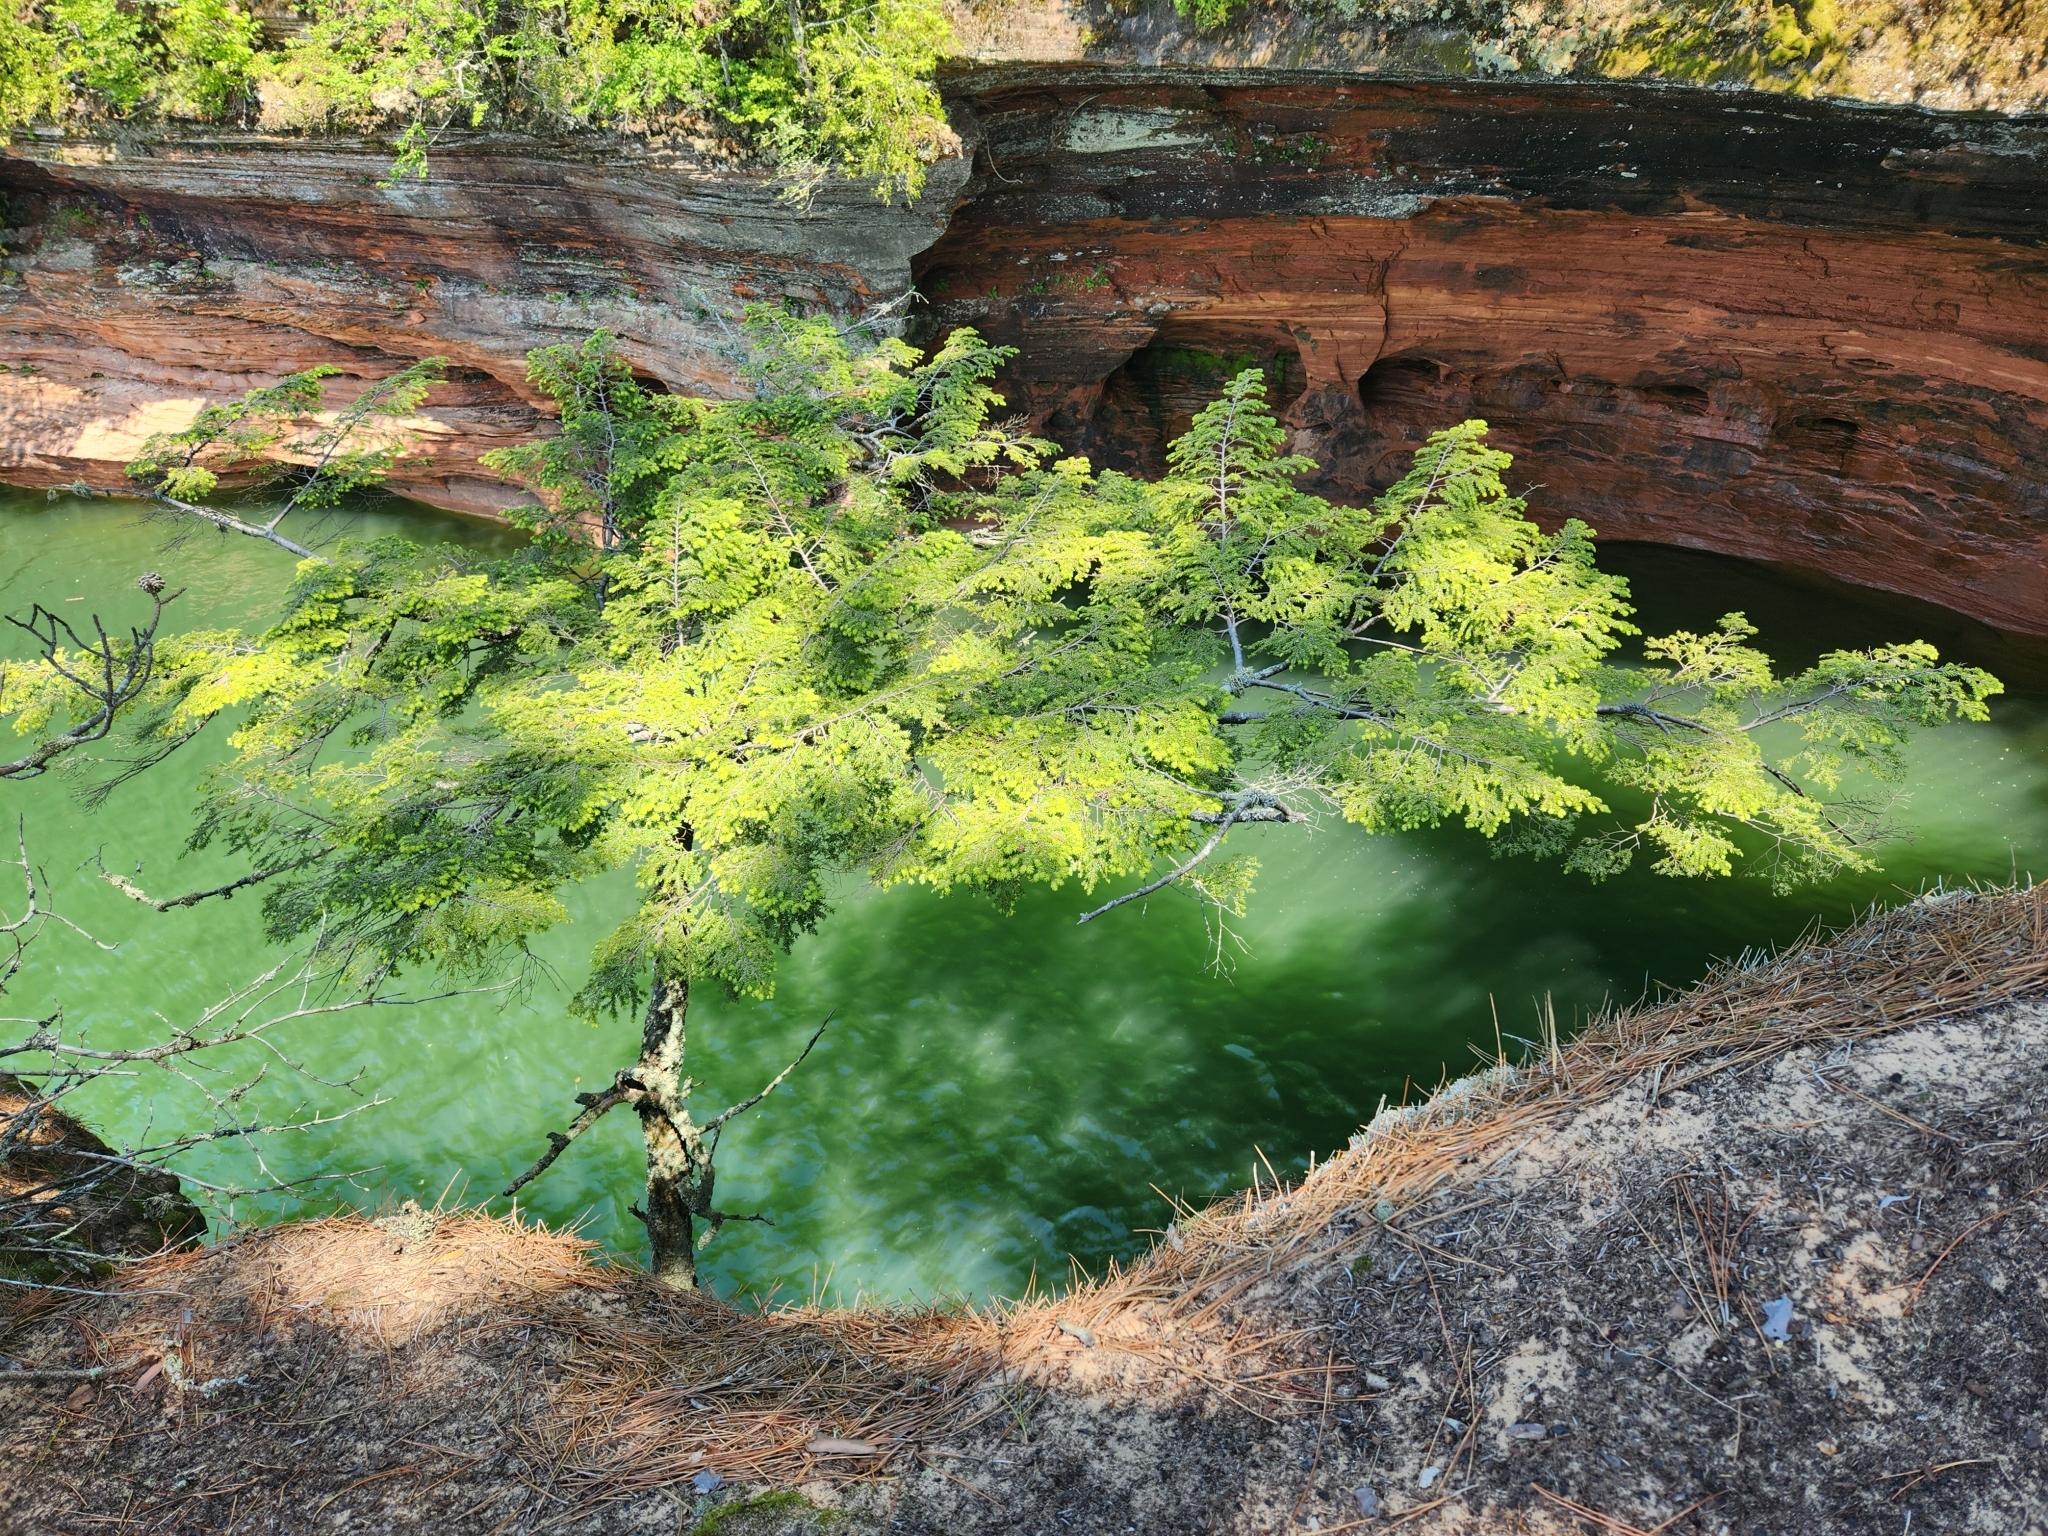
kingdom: Plantae
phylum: Tracheophyta
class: Pinopsida
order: Pinales
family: Pinaceae
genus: Tsuga
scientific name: Tsuga canadensis
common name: Eastern hemlock
